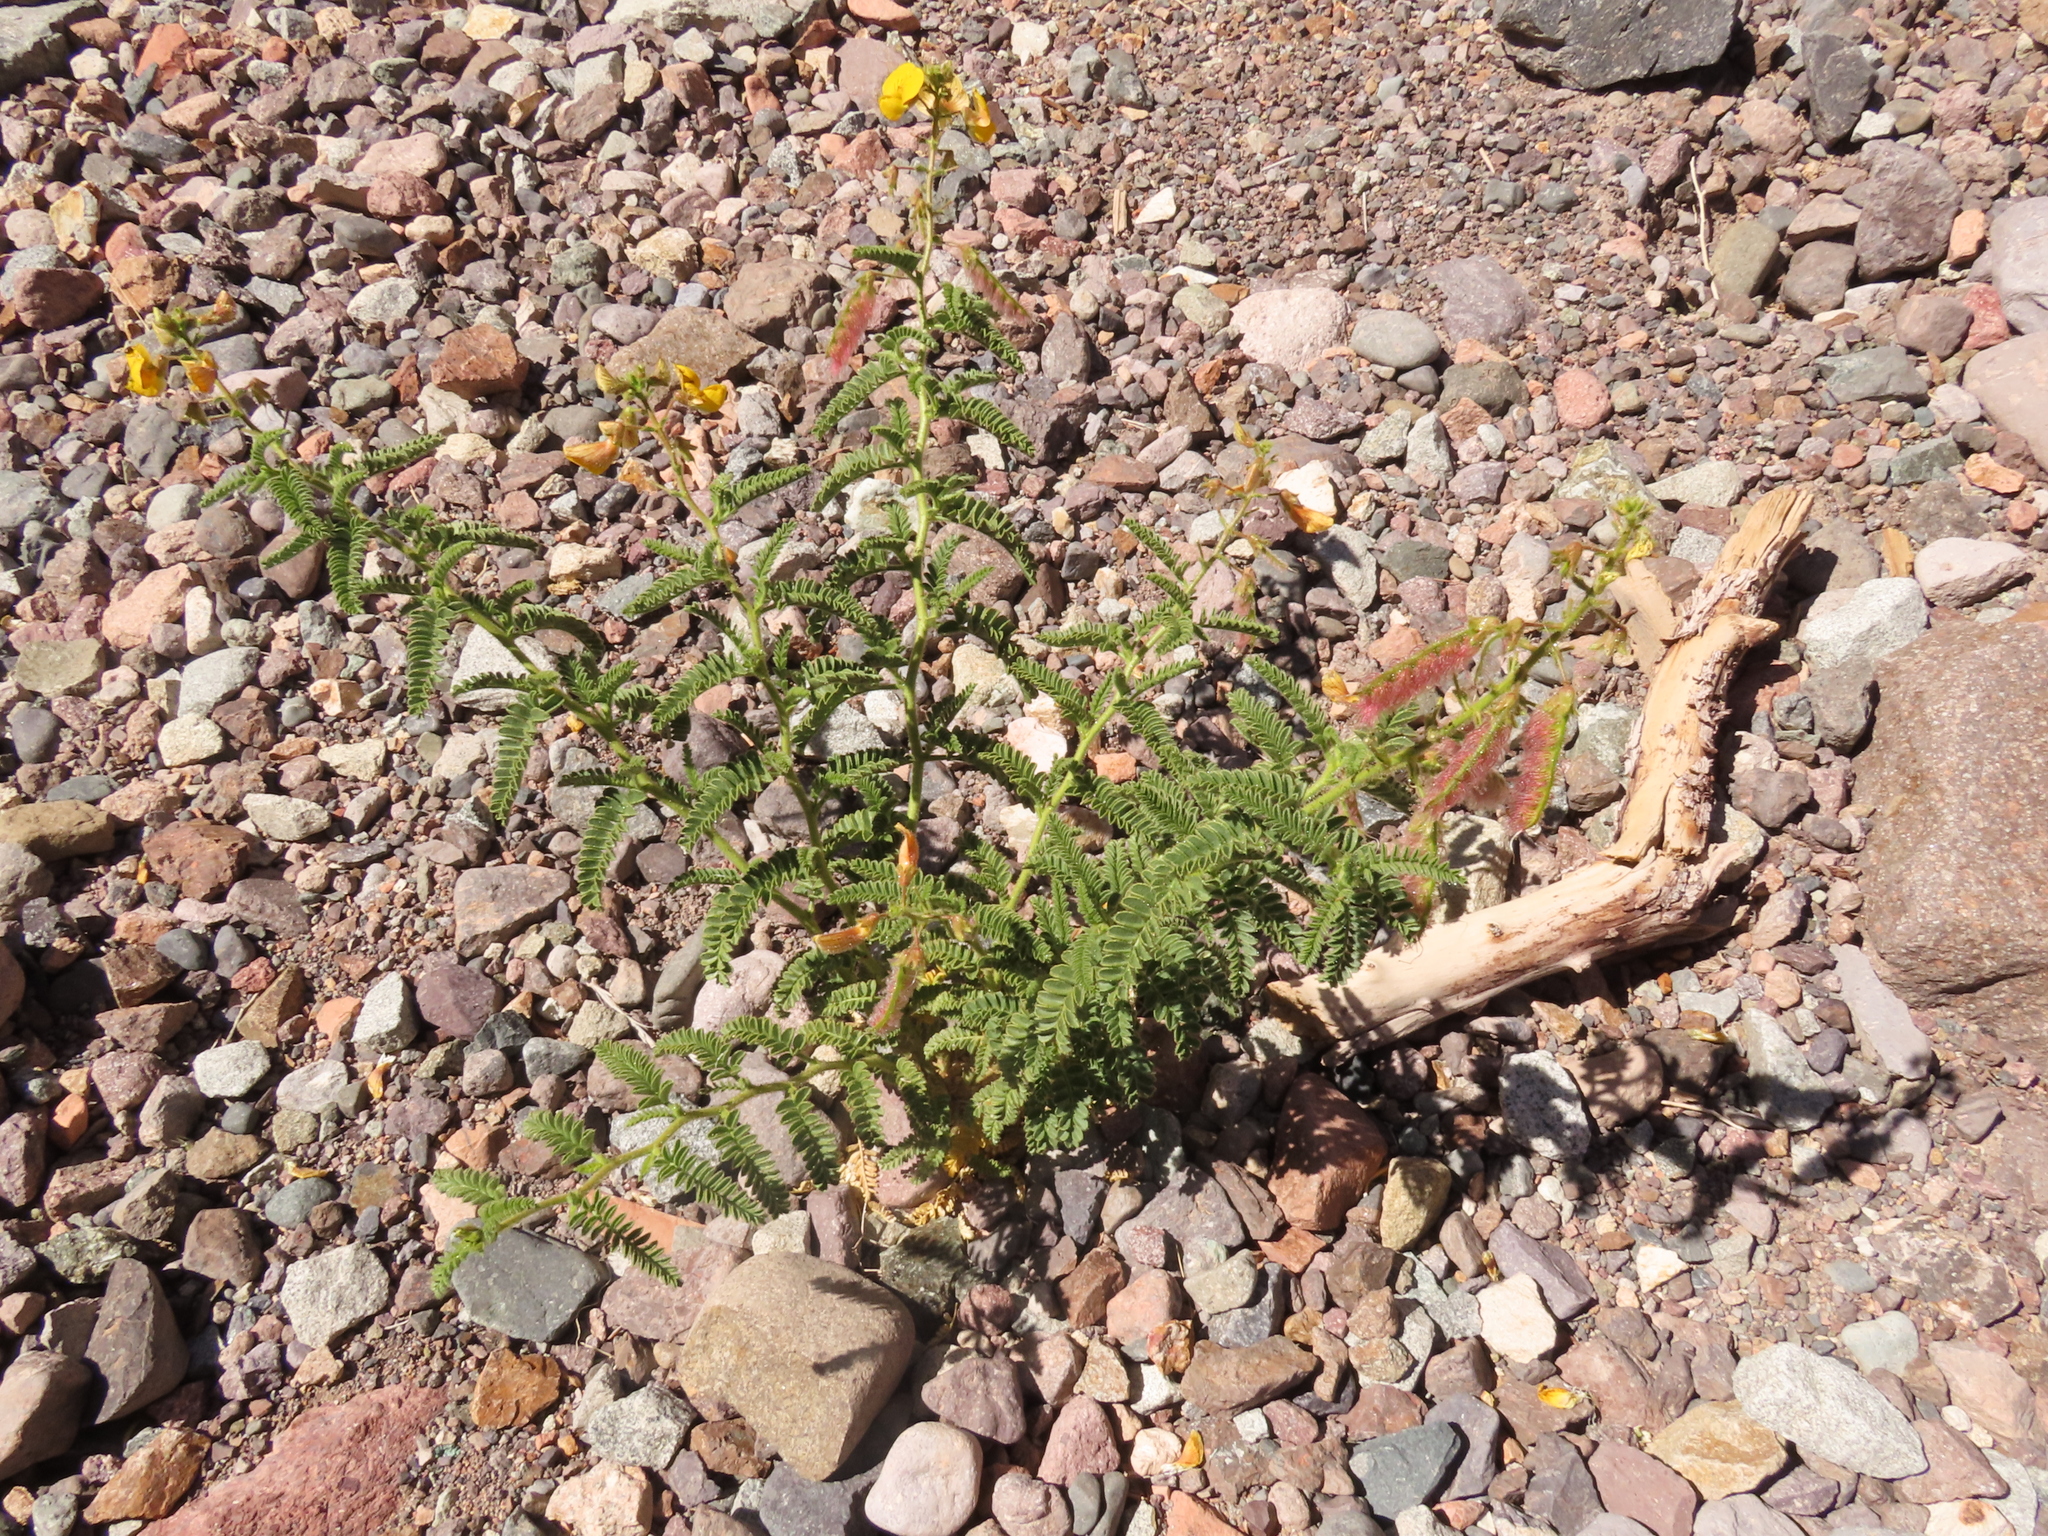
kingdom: Plantae
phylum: Tracheophyta
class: Magnoliopsida
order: Fabales
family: Fabaceae
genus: Adesmia
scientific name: Adesmia obscura
